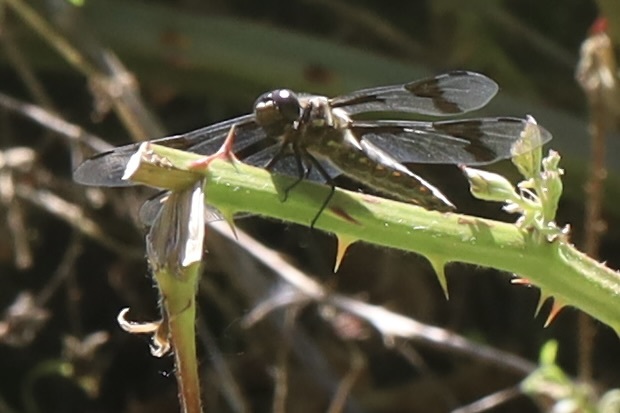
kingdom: Animalia
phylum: Arthropoda
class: Insecta
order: Odonata
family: Libellulidae
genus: Libellula
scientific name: Libellula forensis
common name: Eight-spotted skimmer
